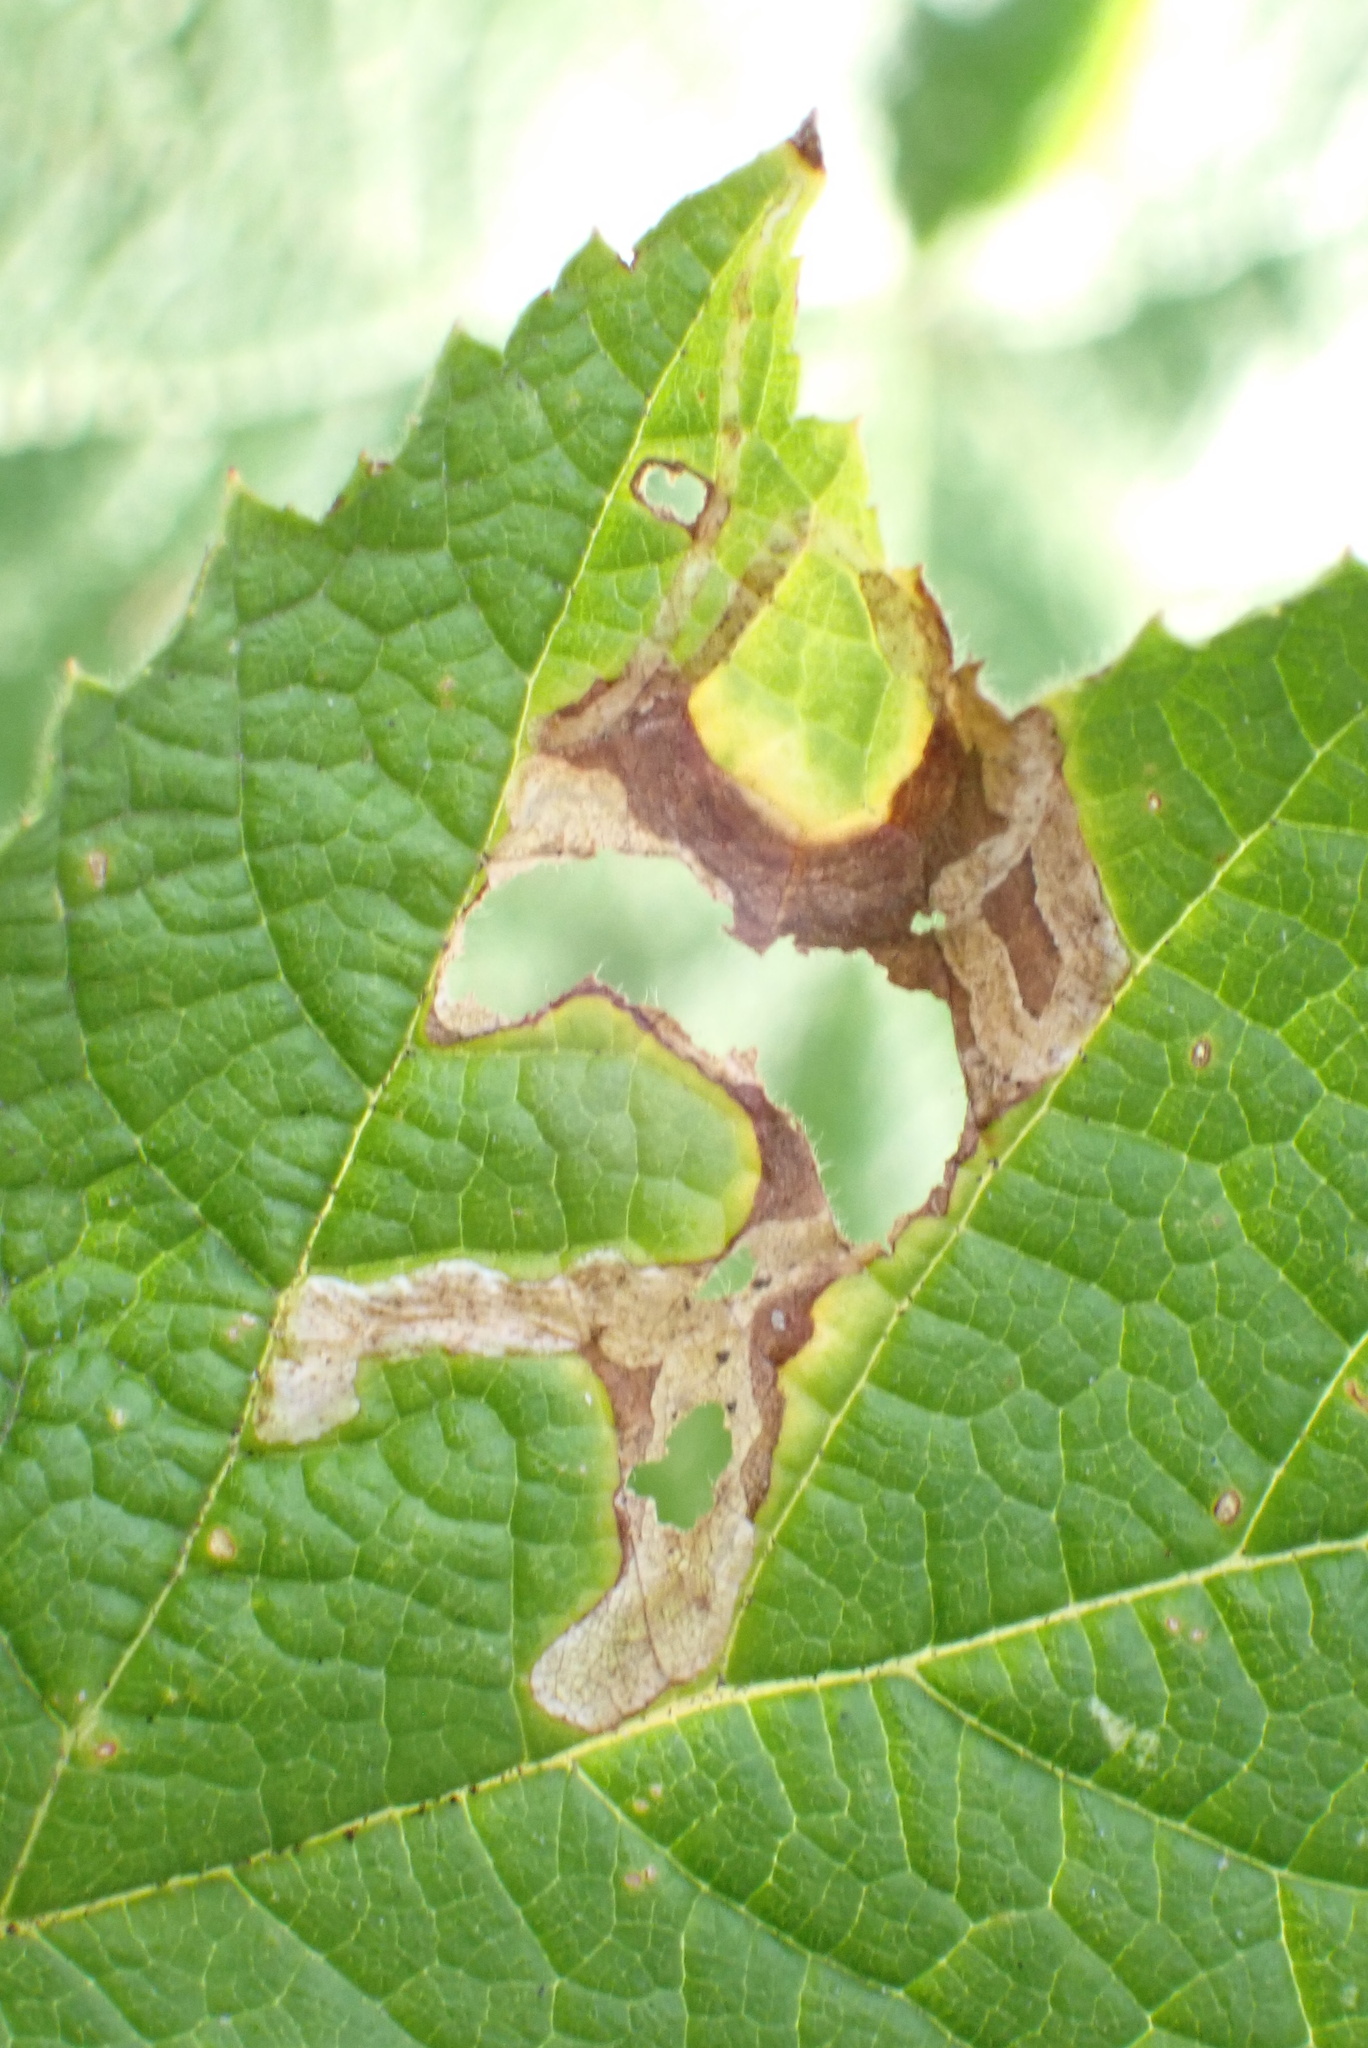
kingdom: Animalia
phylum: Arthropoda
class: Insecta
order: Diptera
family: Agromyzidae
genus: Agromyza
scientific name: Agromyza vockerothi
